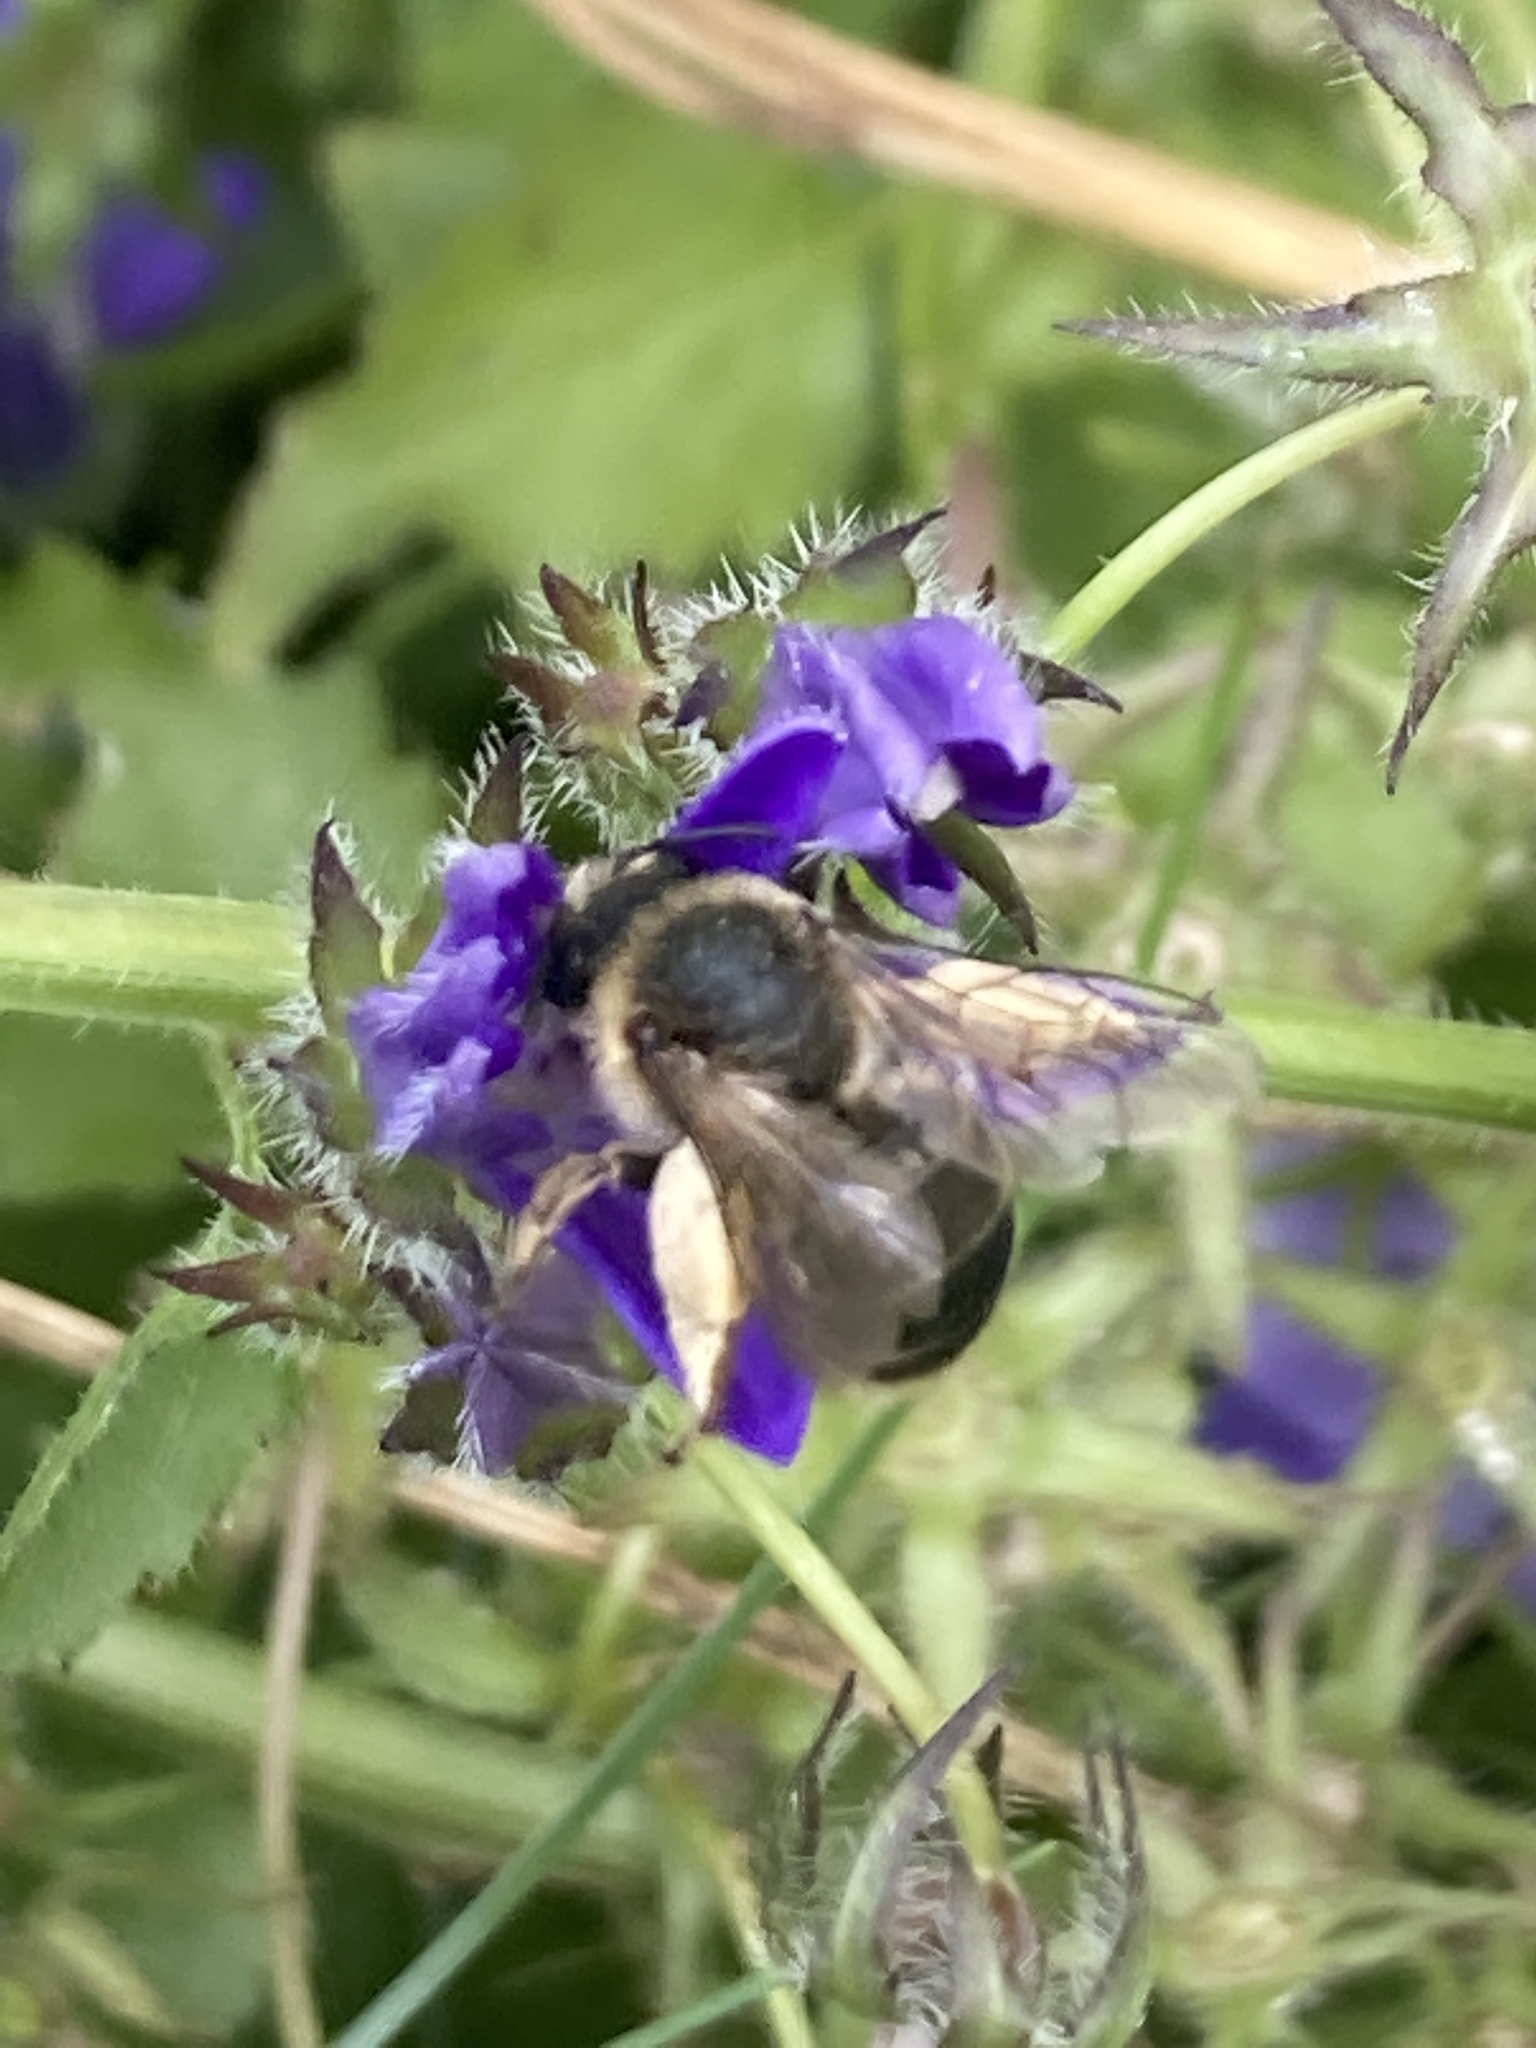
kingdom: Animalia
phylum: Arthropoda
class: Insecta
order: Hymenoptera
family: Melittidae
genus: Melitta
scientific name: Melitta haemorrhoidalis
